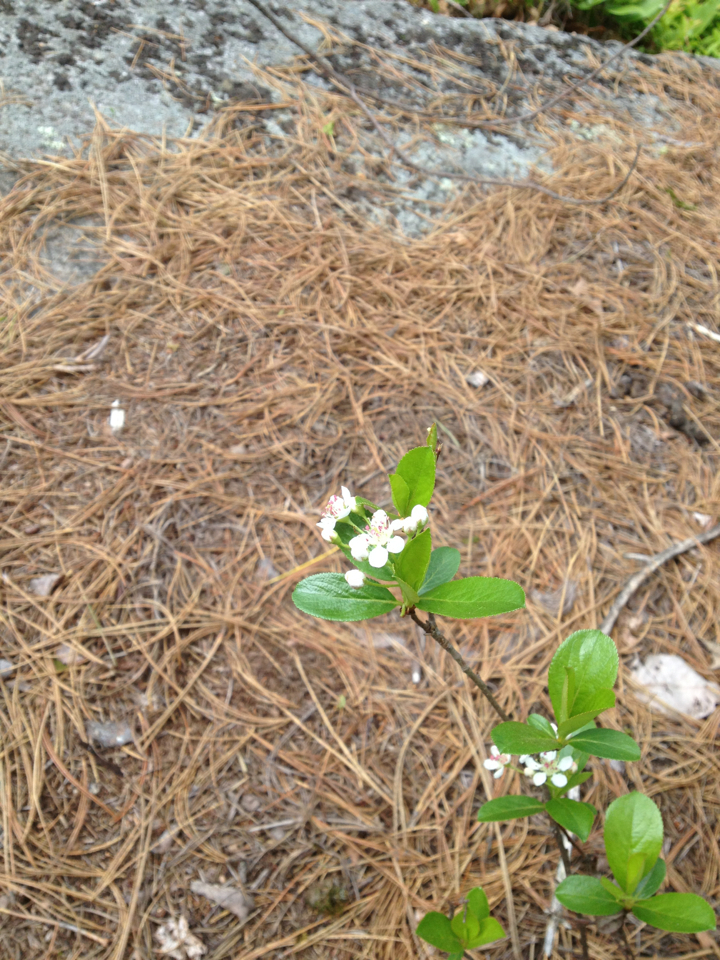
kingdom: Plantae
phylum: Tracheophyta
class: Magnoliopsida
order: Rosales
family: Rosaceae
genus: Aronia
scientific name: Aronia melanocarpa
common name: Black chokeberry
